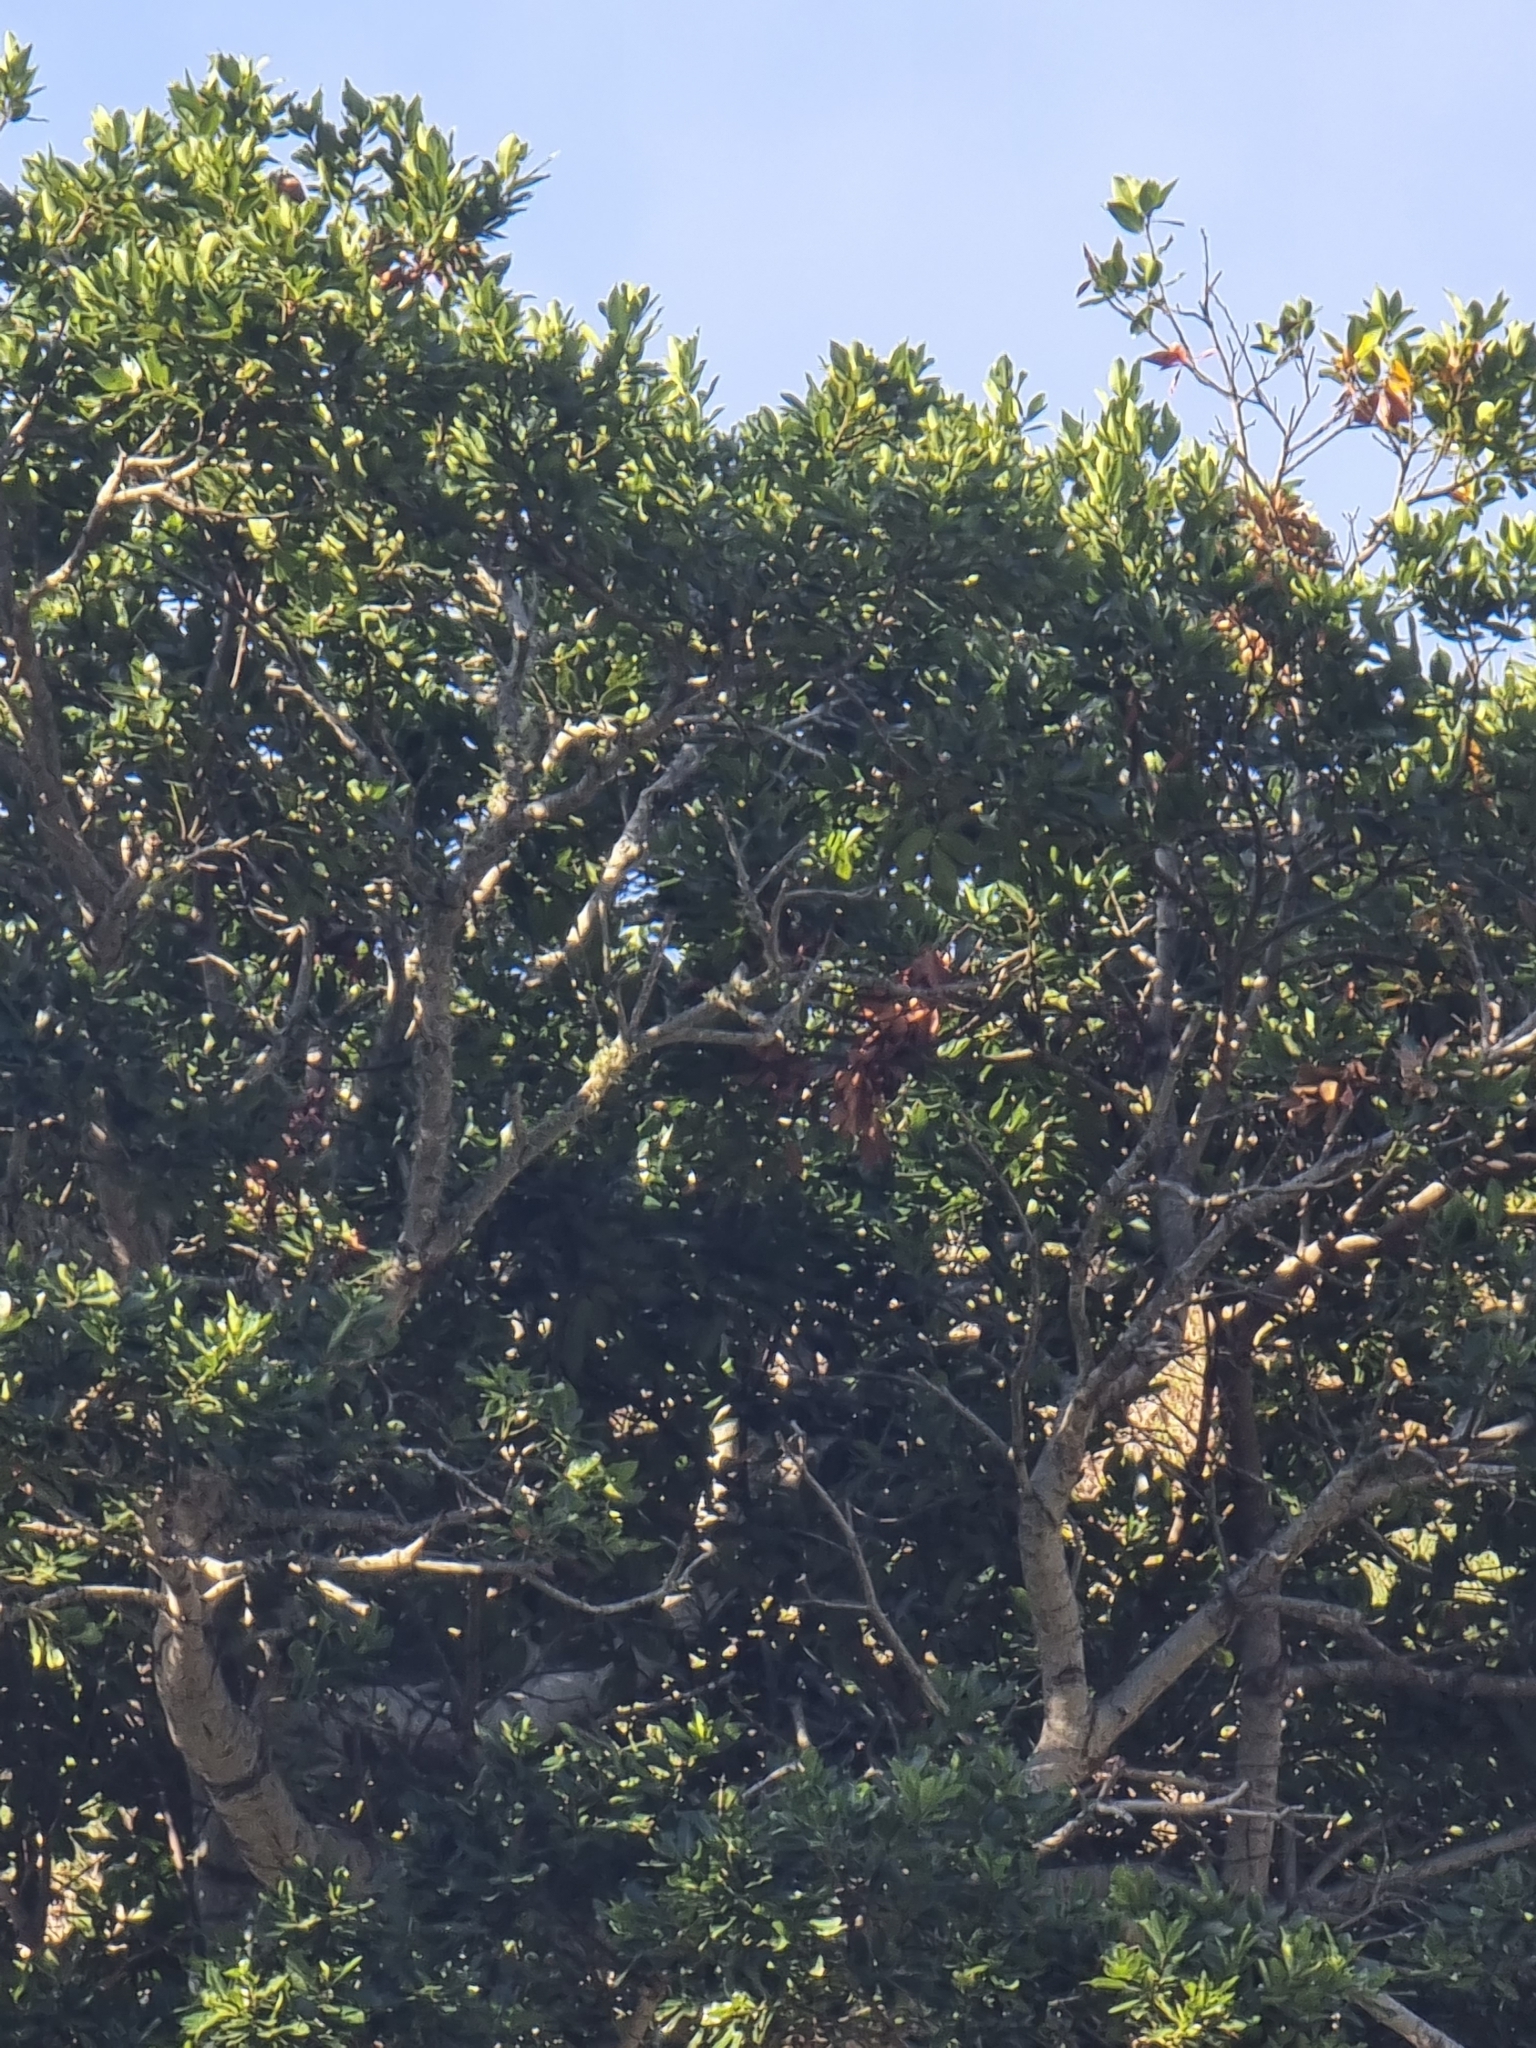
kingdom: Plantae
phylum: Tracheophyta
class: Magnoliopsida
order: Laurales
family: Lauraceae
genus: Laurus
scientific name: Laurus novocanariensis
